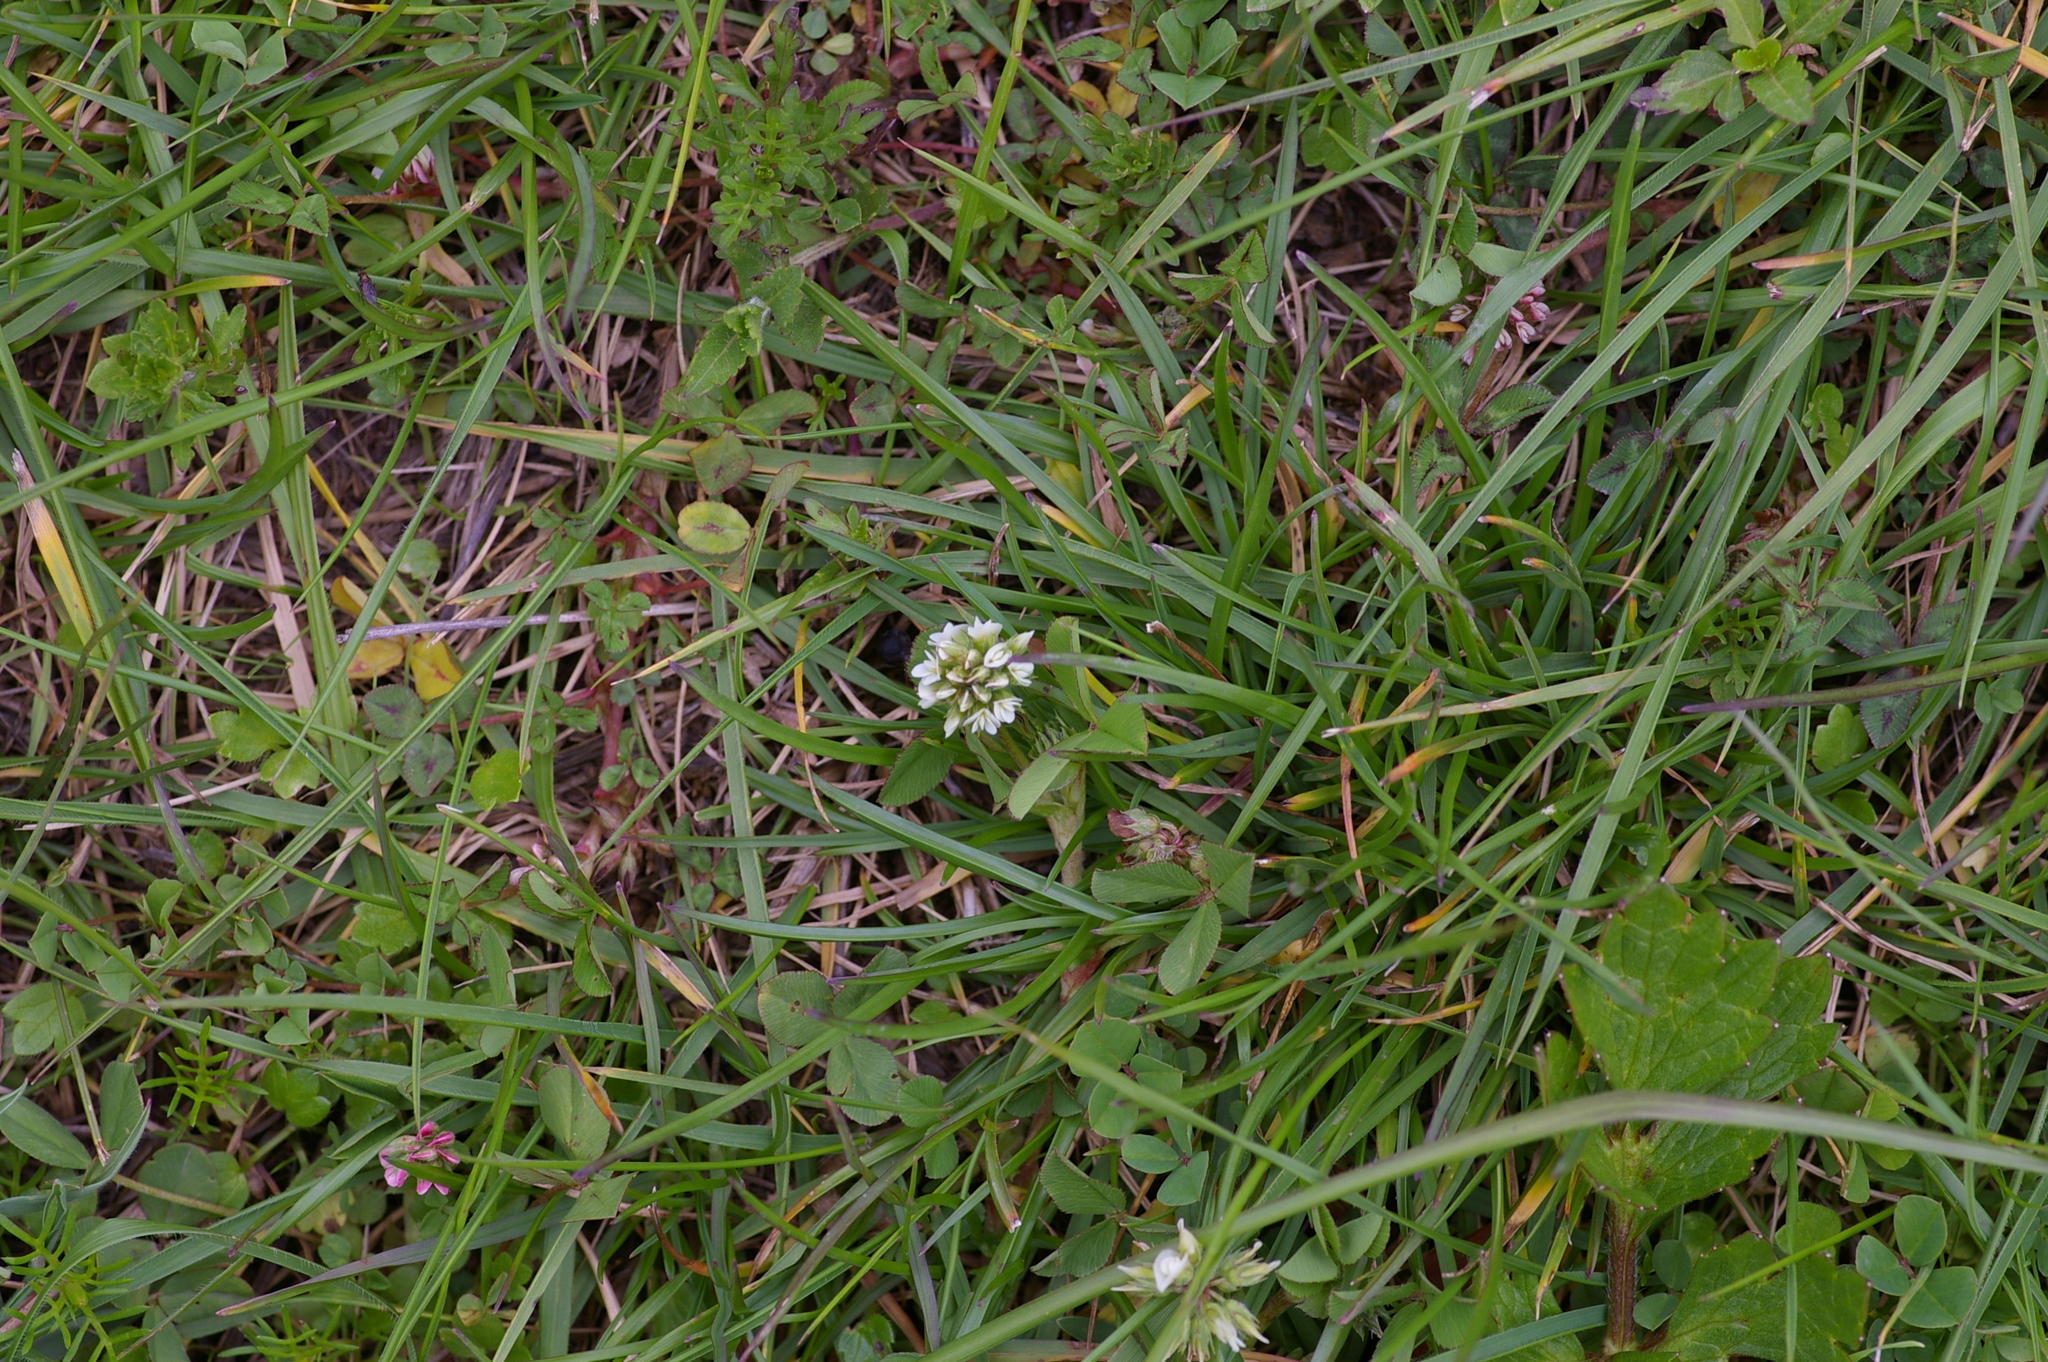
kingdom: Plantae
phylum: Tracheophyta
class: Magnoliopsida
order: Fabales
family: Fabaceae
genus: Trifolium
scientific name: Trifolium repens
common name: White clover
